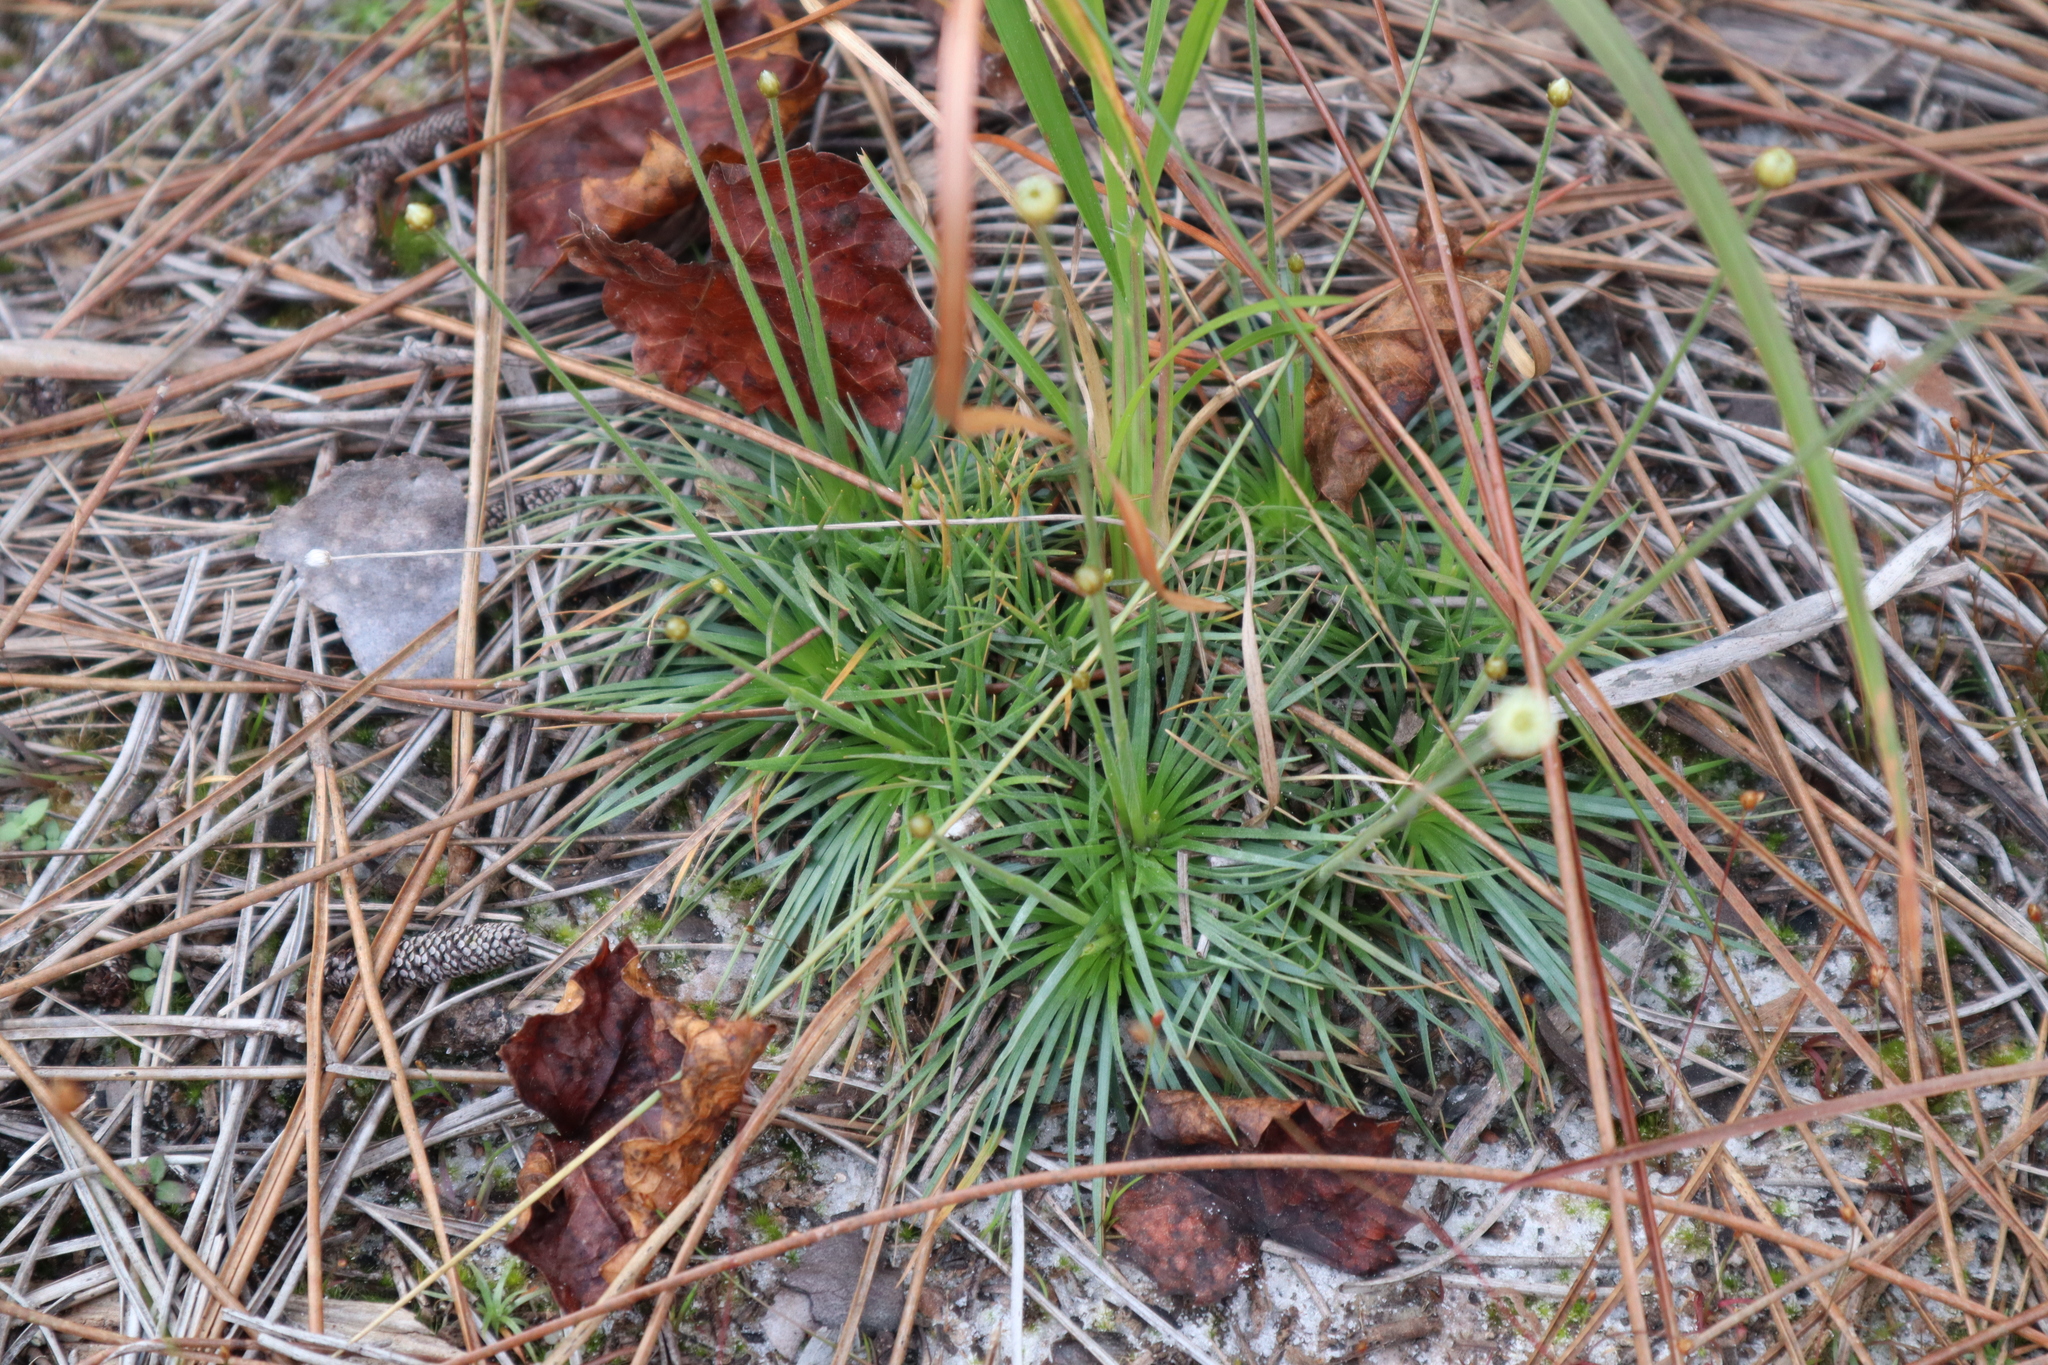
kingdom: Plantae
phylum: Tracheophyta
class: Liliopsida
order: Poales
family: Eriocaulaceae
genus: Syngonanthus
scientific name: Syngonanthus flavidulus
